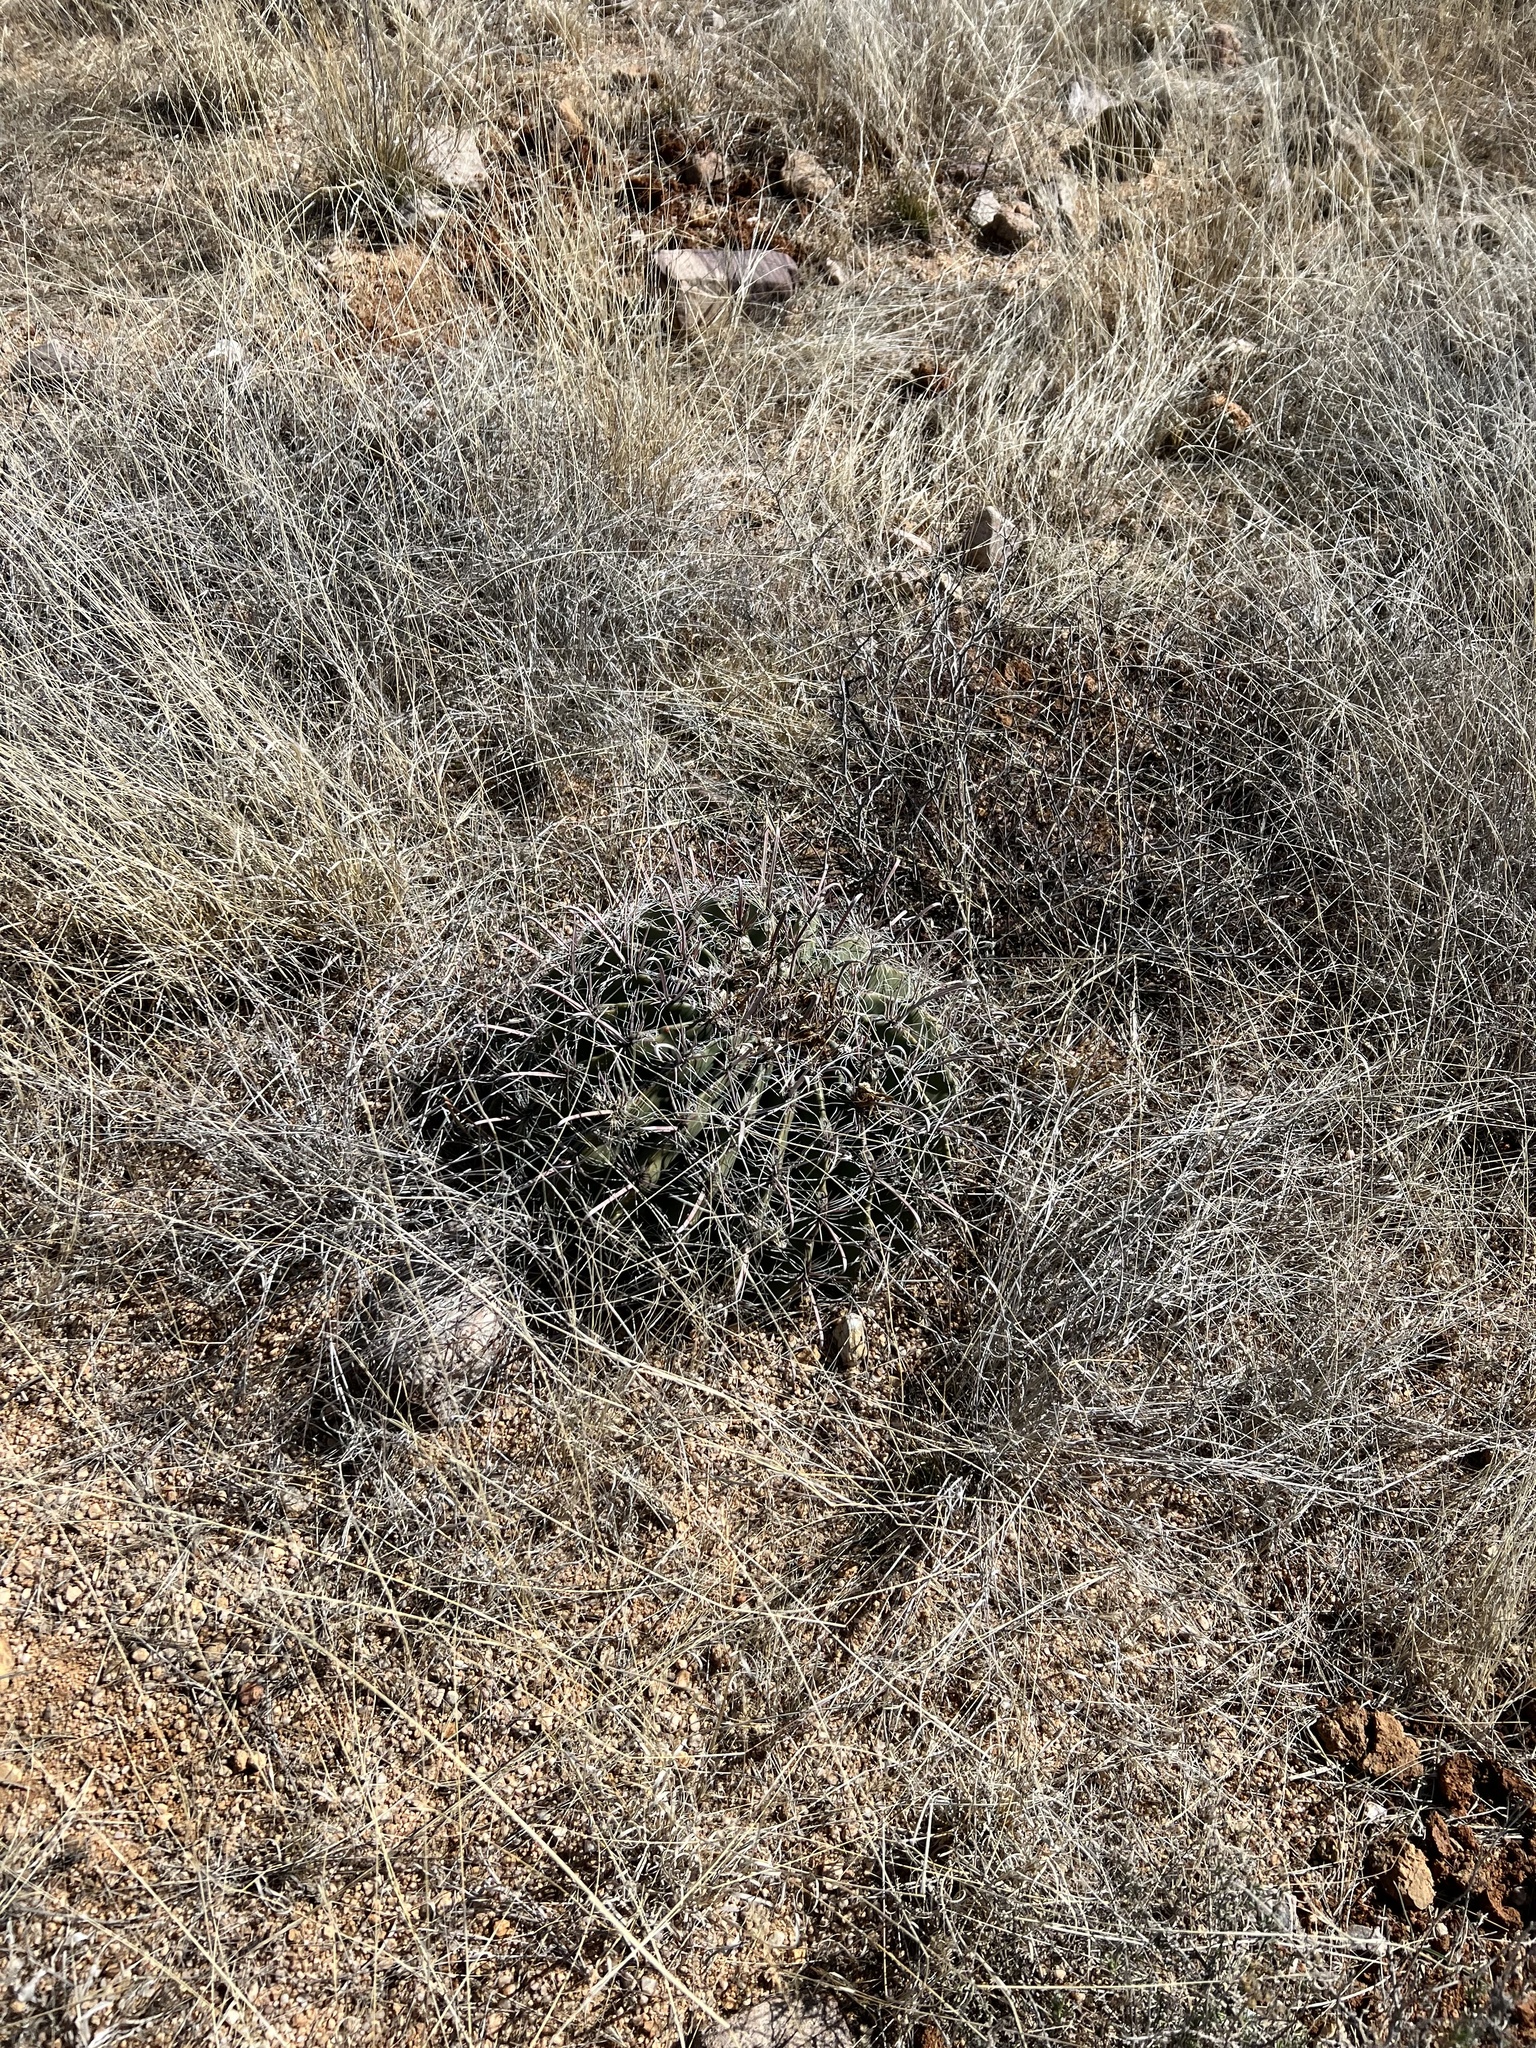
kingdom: Plantae
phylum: Tracheophyta
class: Magnoliopsida
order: Caryophyllales
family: Cactaceae
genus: Ferocactus
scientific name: Ferocactus wislizeni
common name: Candy barrel cactus
